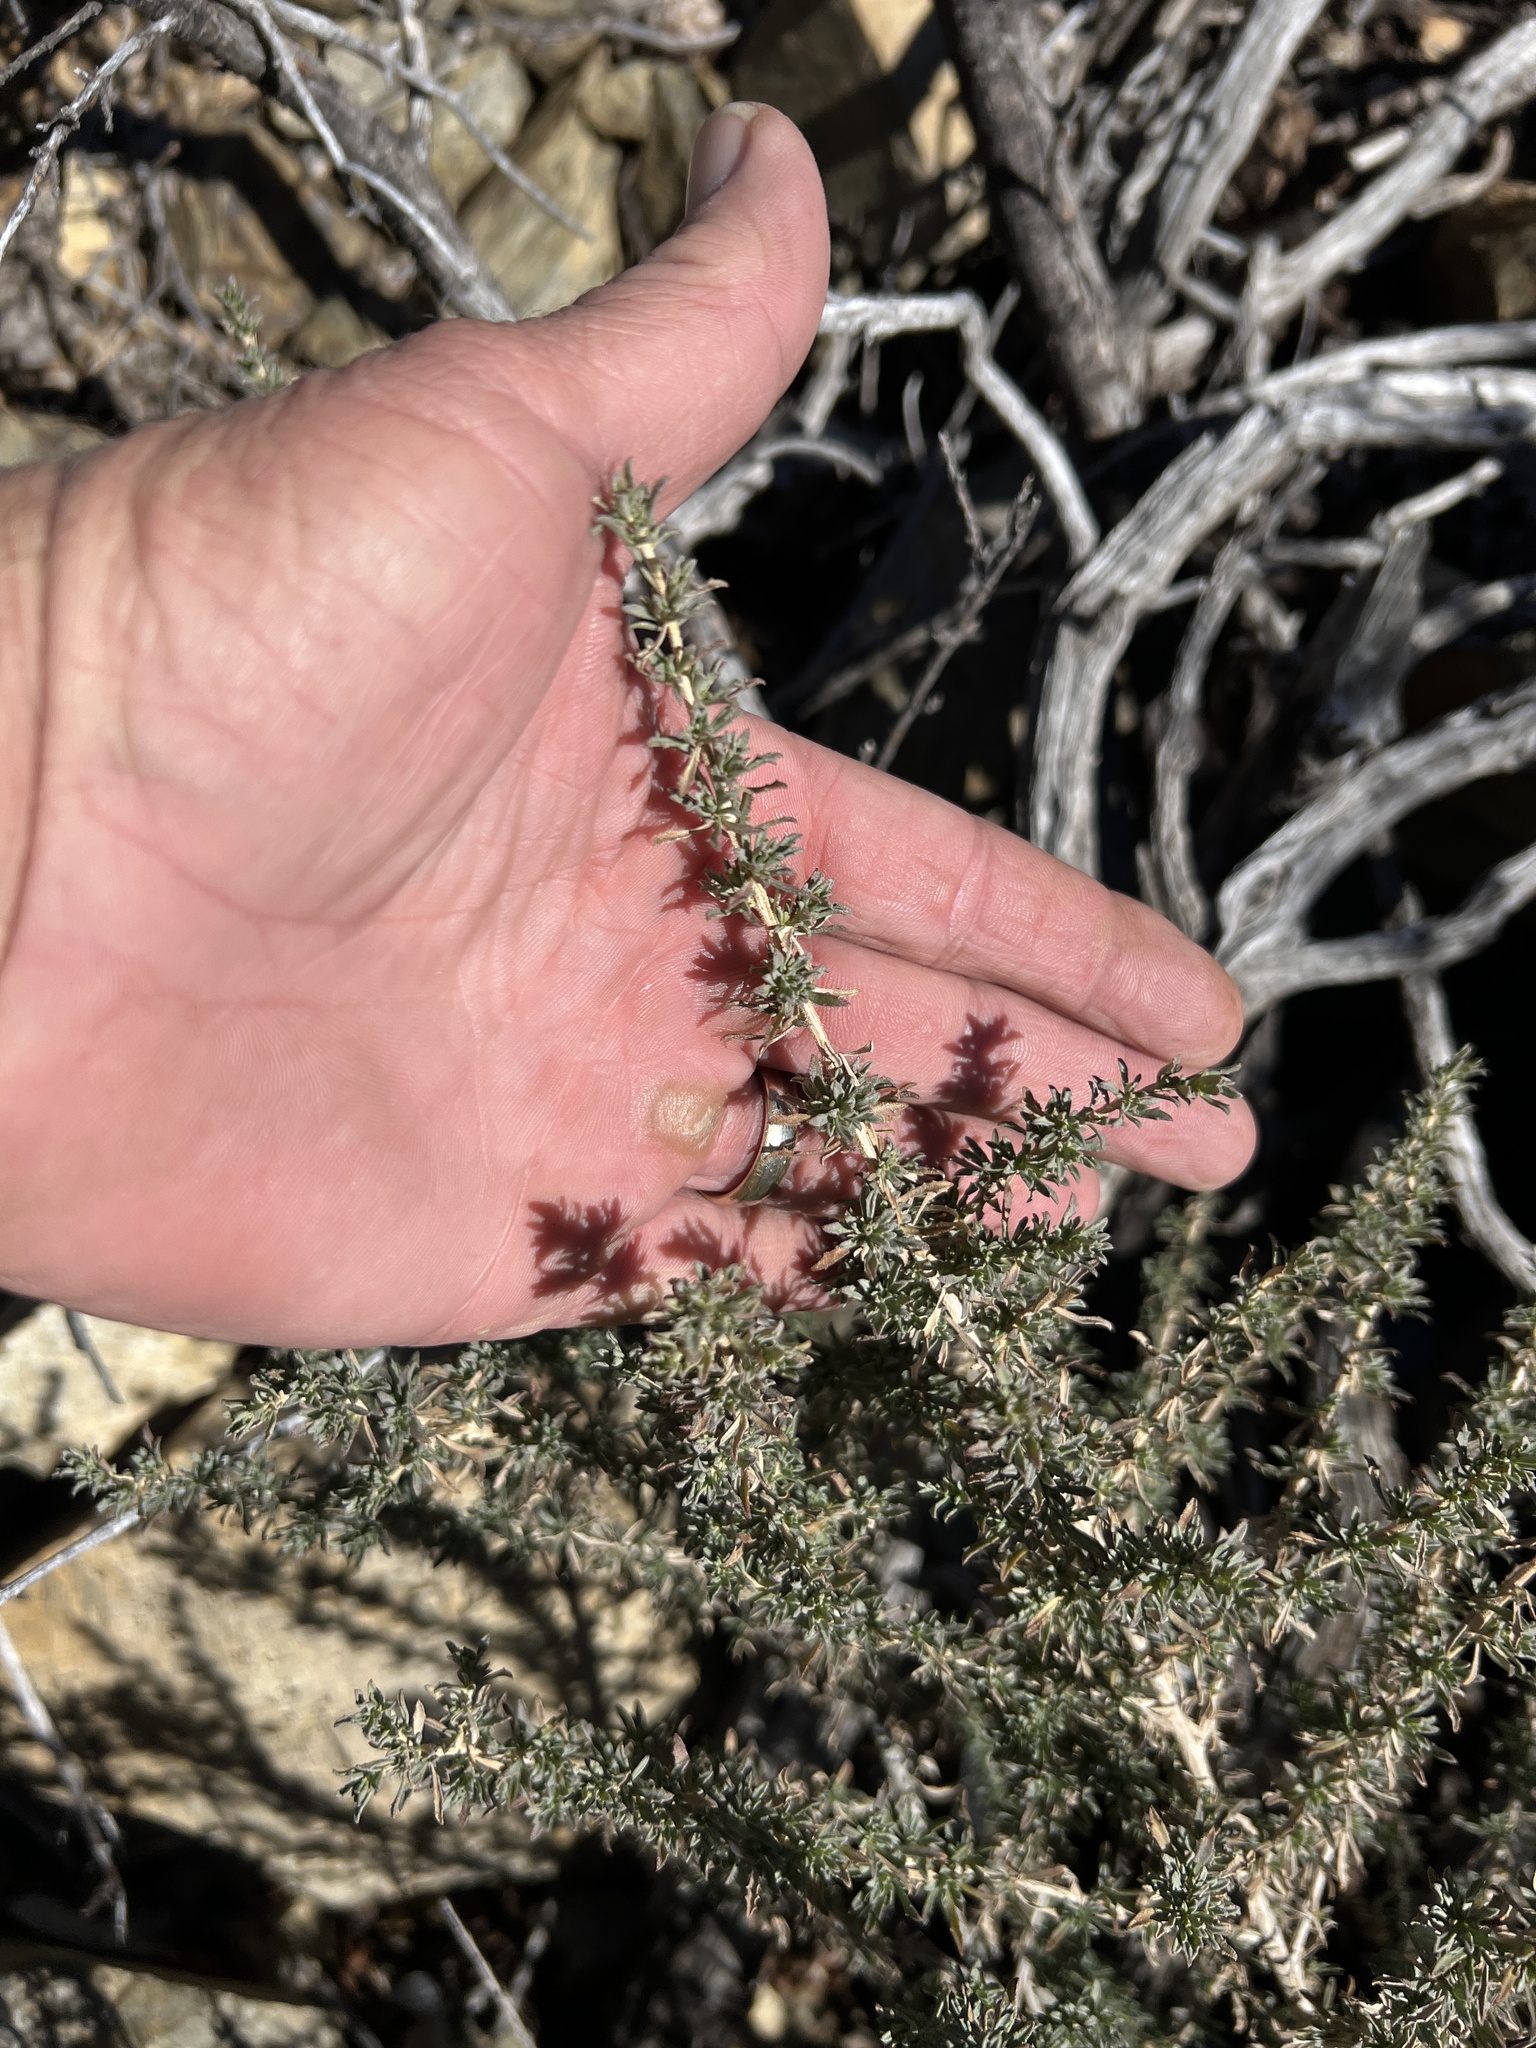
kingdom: Plantae
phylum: Tracheophyta
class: Magnoliopsida
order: Asterales
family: Asteraceae
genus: Baccharis
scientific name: Baccharis pteronioides
